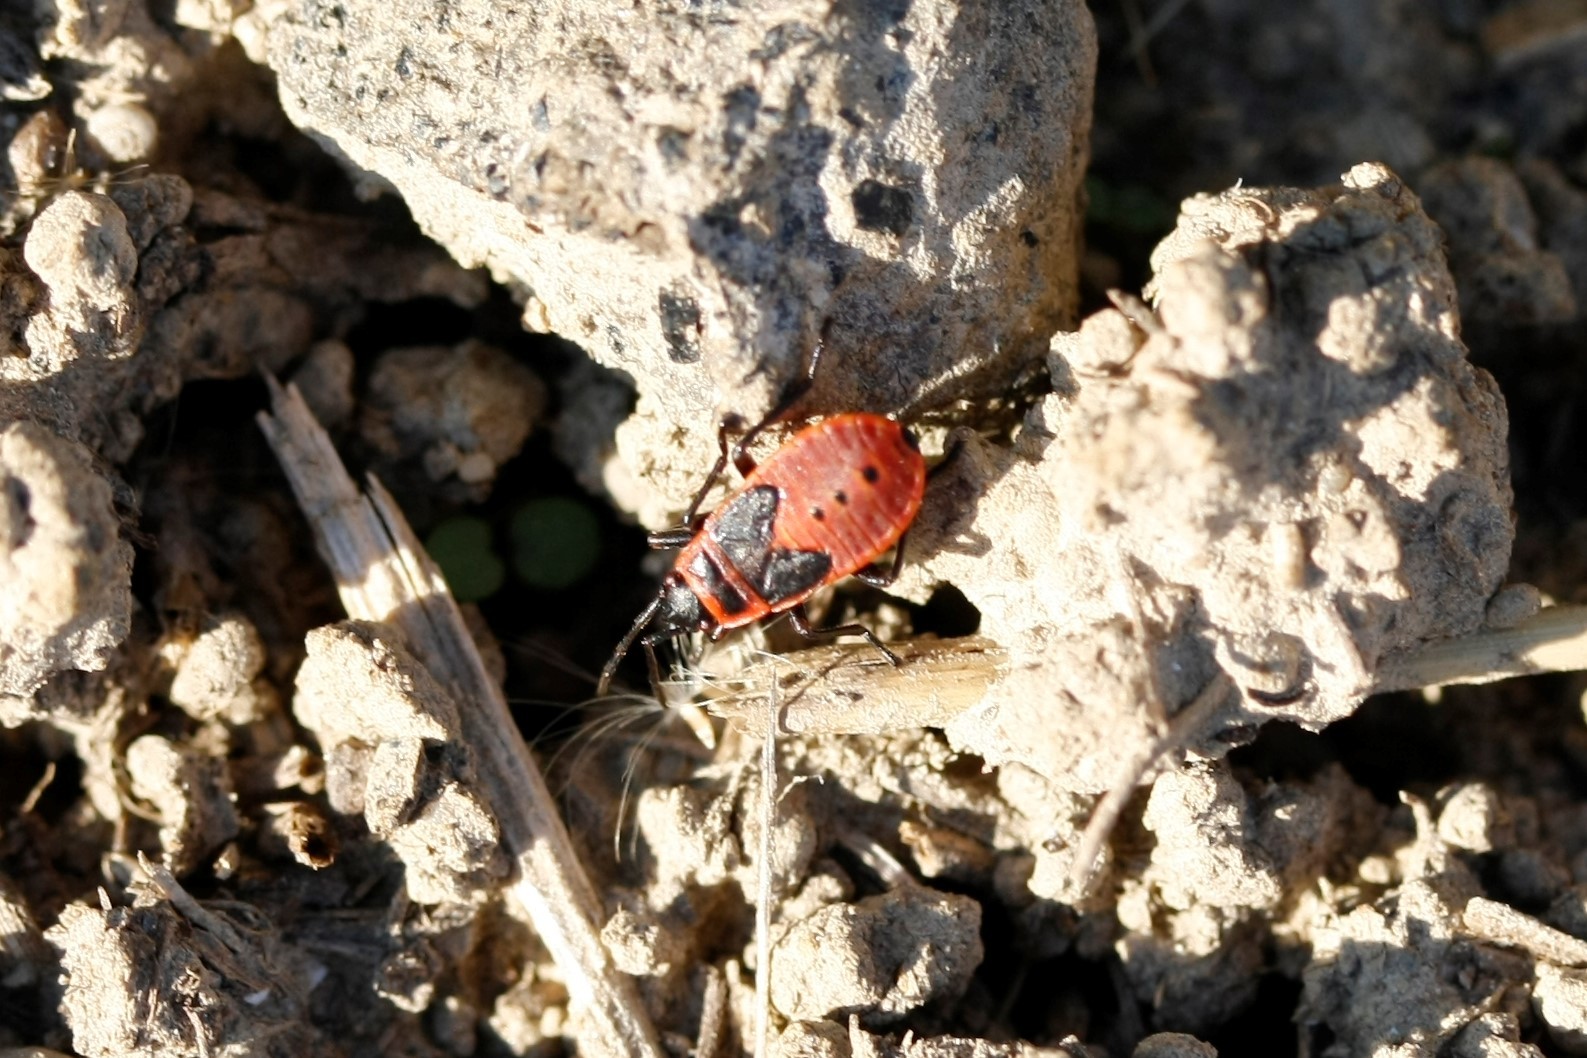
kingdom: Animalia
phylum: Arthropoda
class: Insecta
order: Hemiptera
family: Pyrrhocoridae
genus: Pyrrhocoris
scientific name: Pyrrhocoris apterus
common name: Firebug
